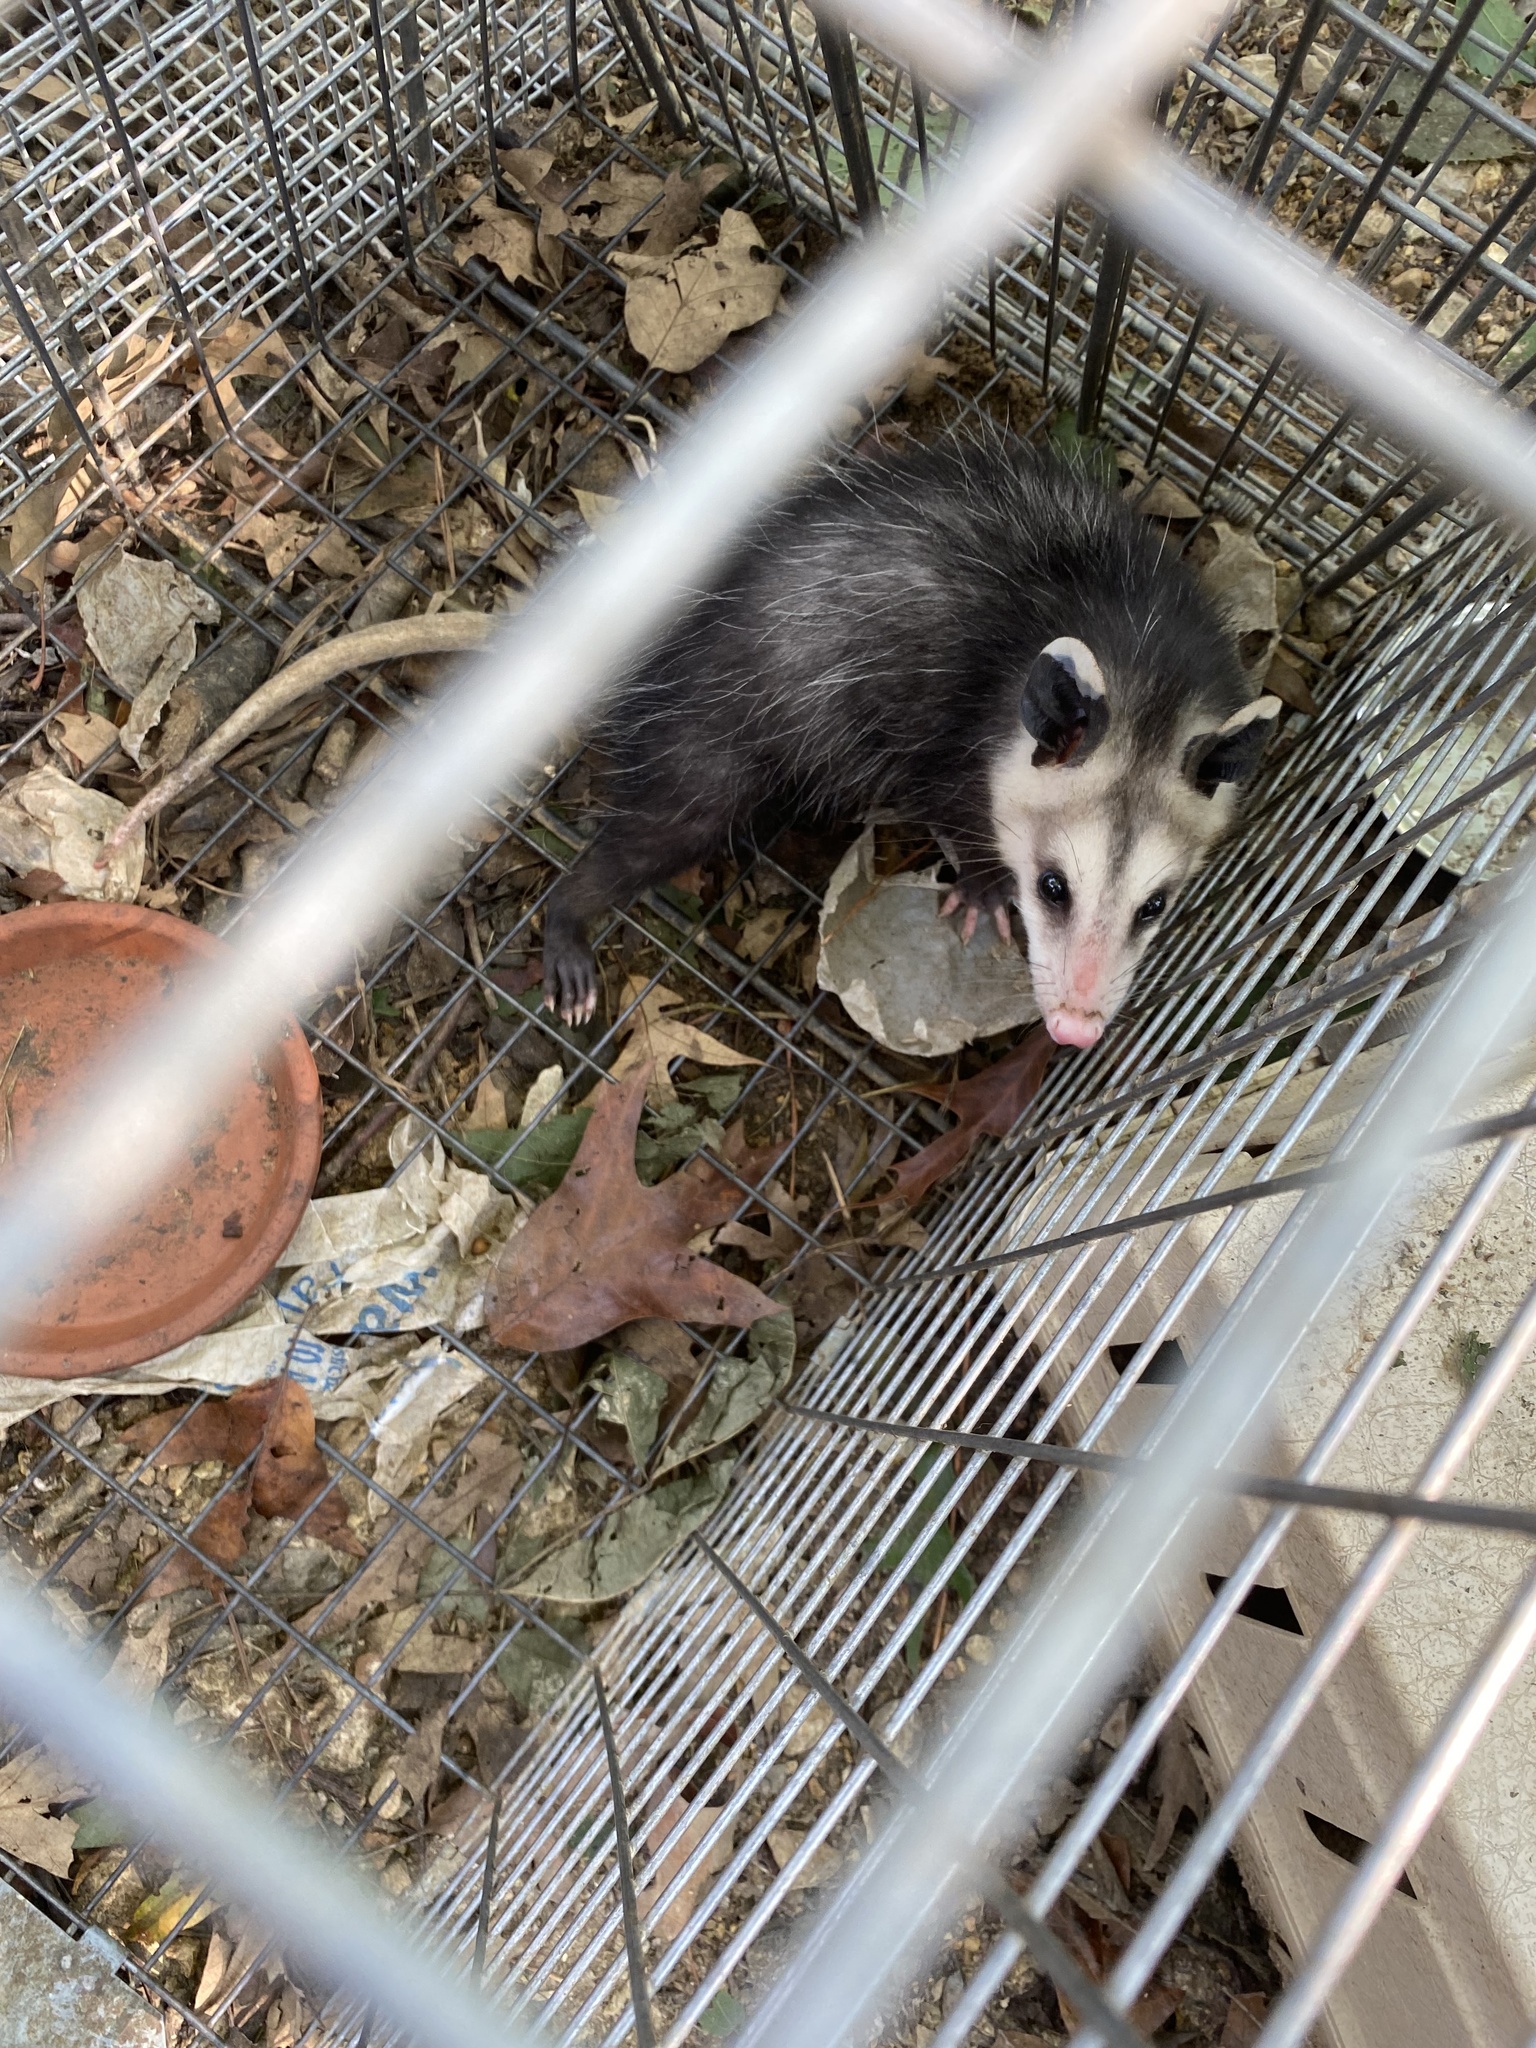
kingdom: Animalia
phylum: Chordata
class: Mammalia
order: Didelphimorphia
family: Didelphidae
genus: Didelphis
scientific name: Didelphis virginiana
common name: Virginia opossum
